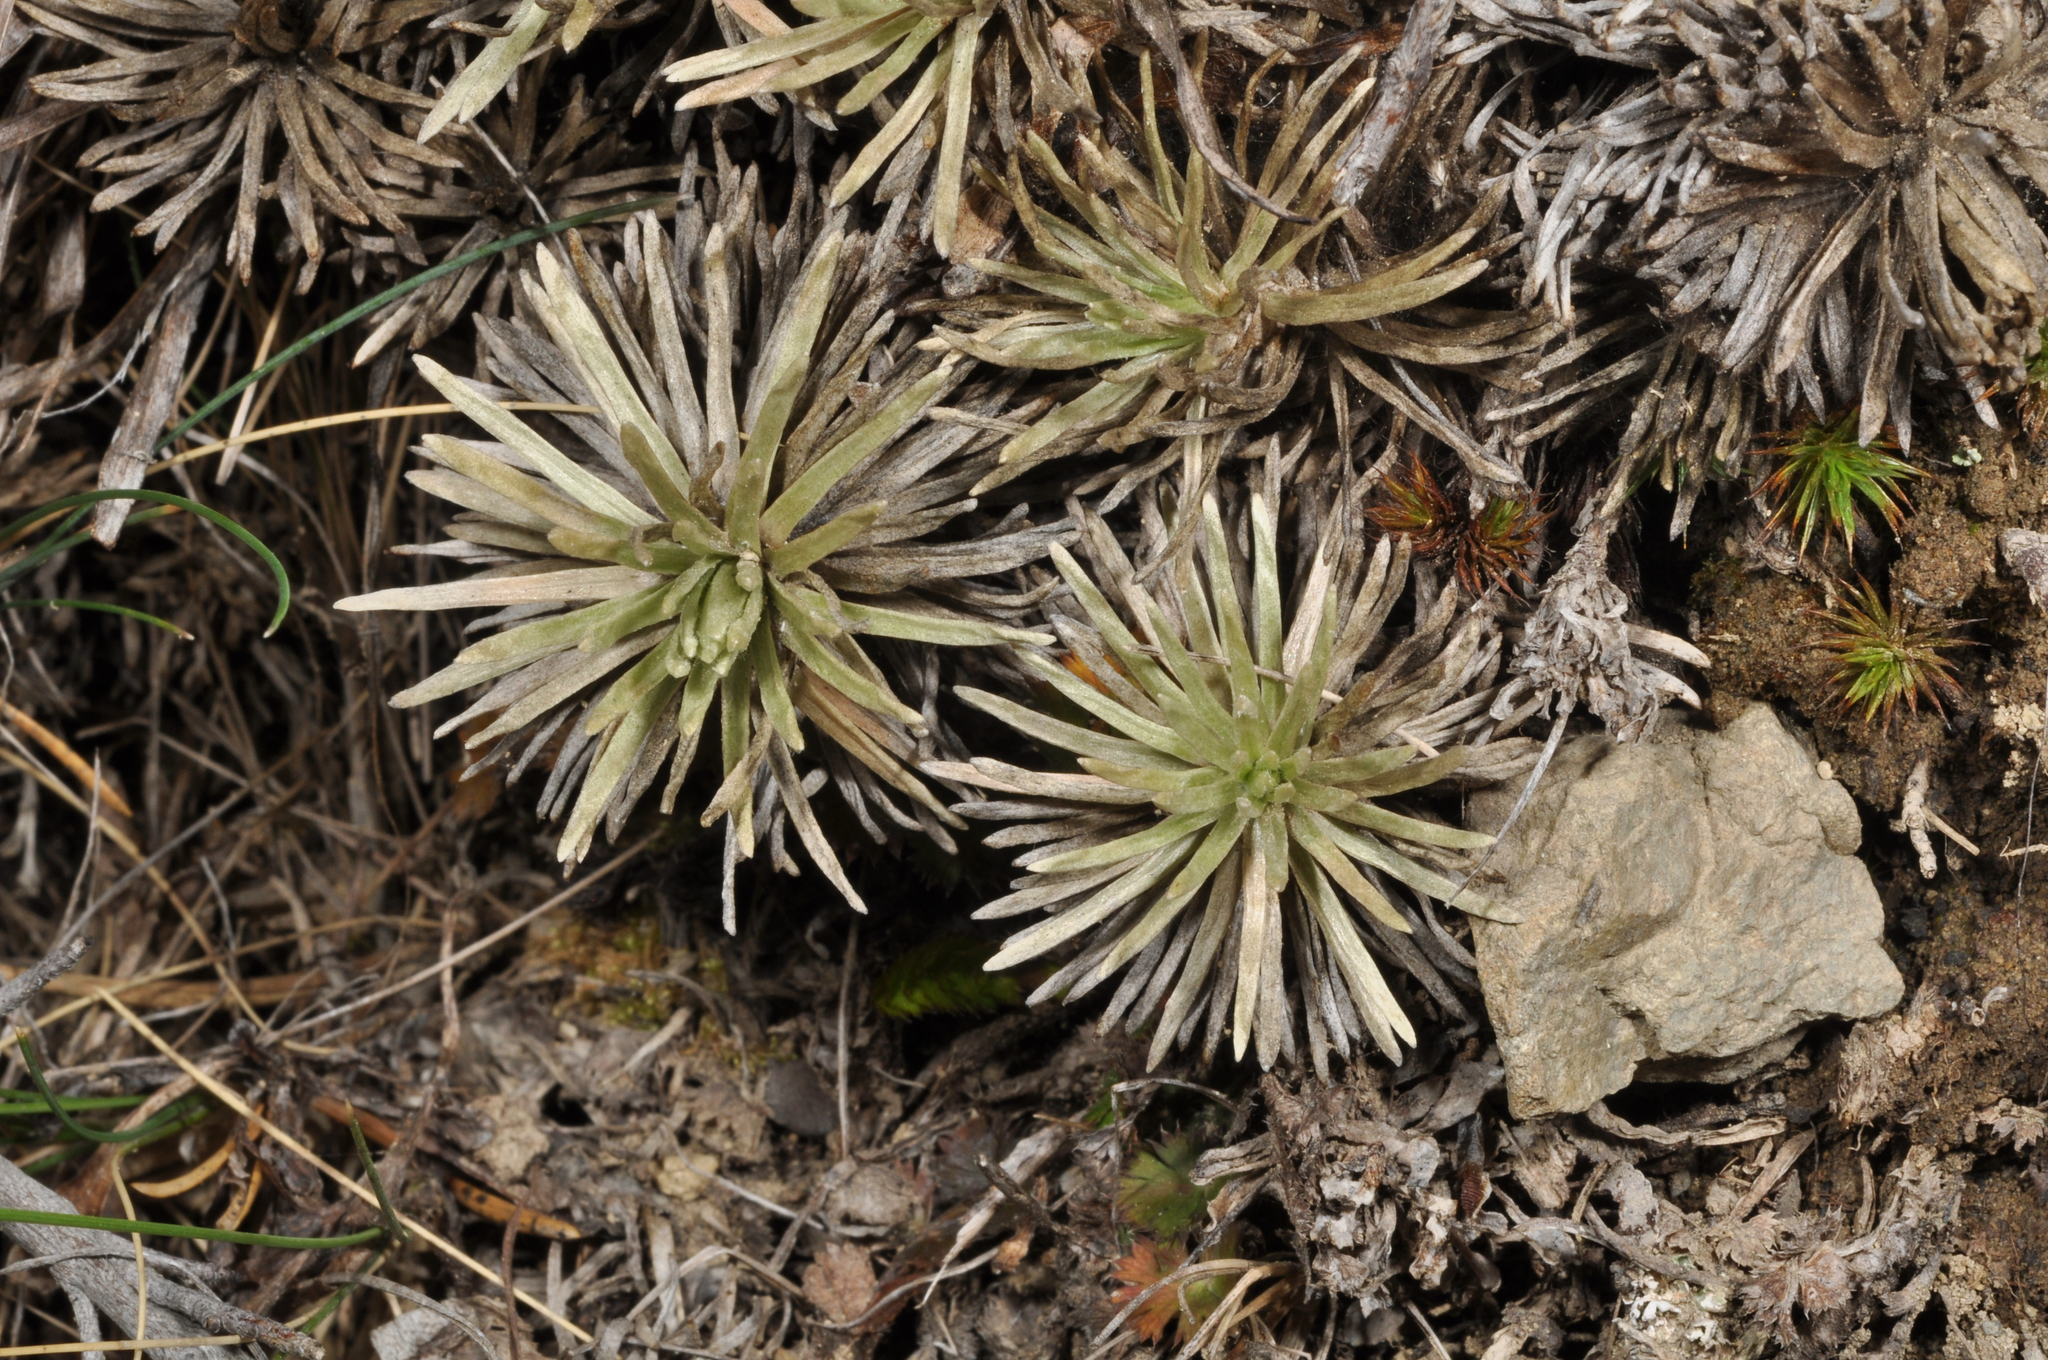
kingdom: Plantae
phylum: Tracheophyta
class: Magnoliopsida
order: Asterales
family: Asteraceae
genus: Celmisia
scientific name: Celmisia sessiliflora
